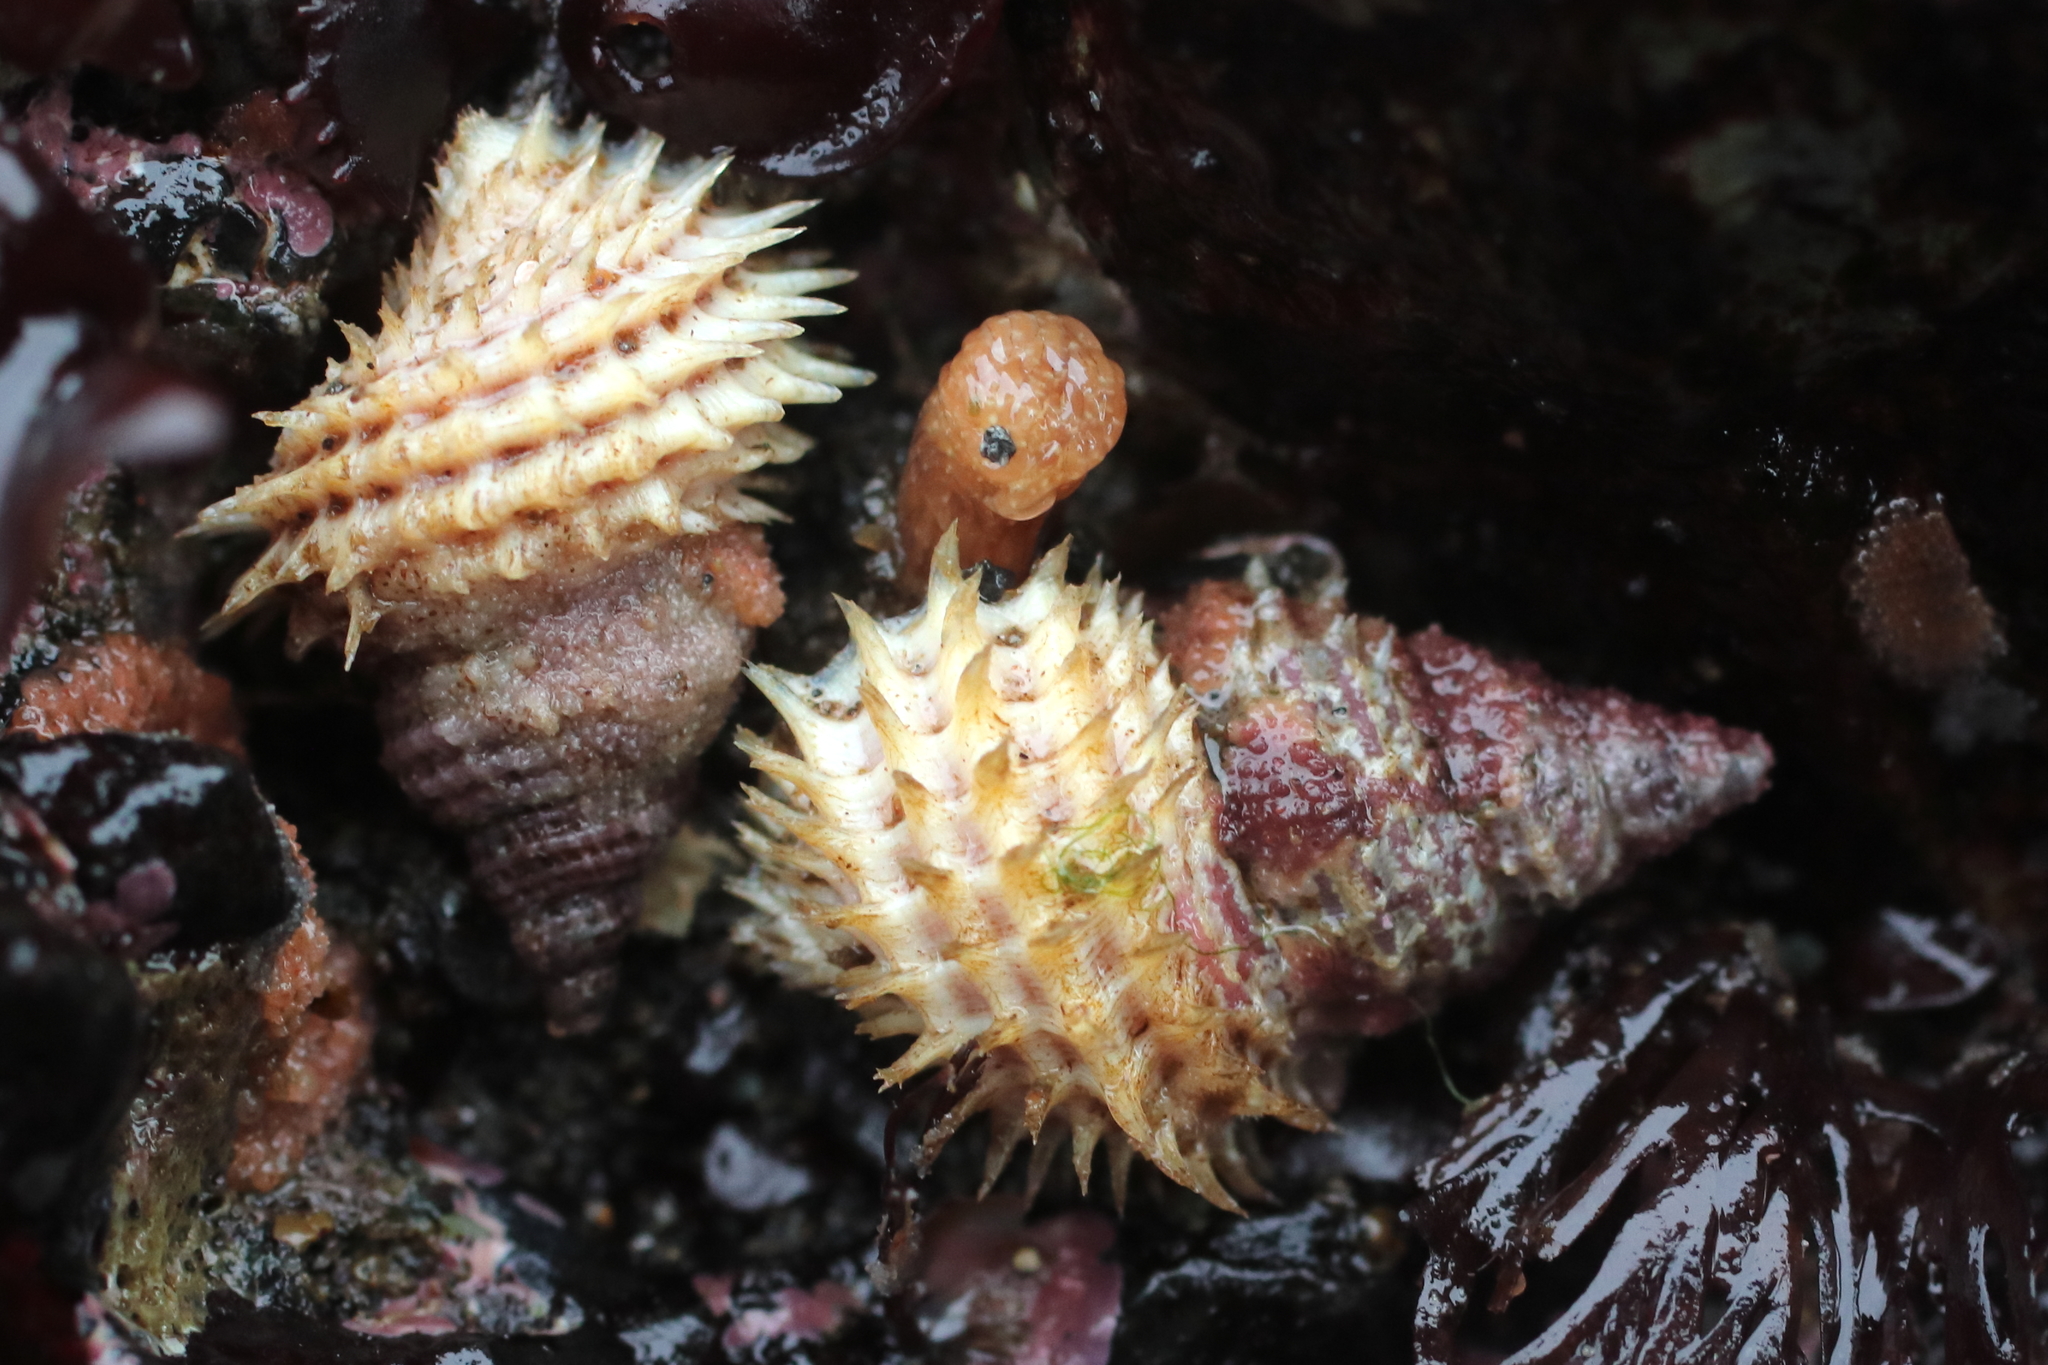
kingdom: Animalia
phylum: Mollusca
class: Gastropoda
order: Littorinimorpha
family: Capulidae
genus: Trichotropis
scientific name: Trichotropis cancellata
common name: Cancellate hairysnail
